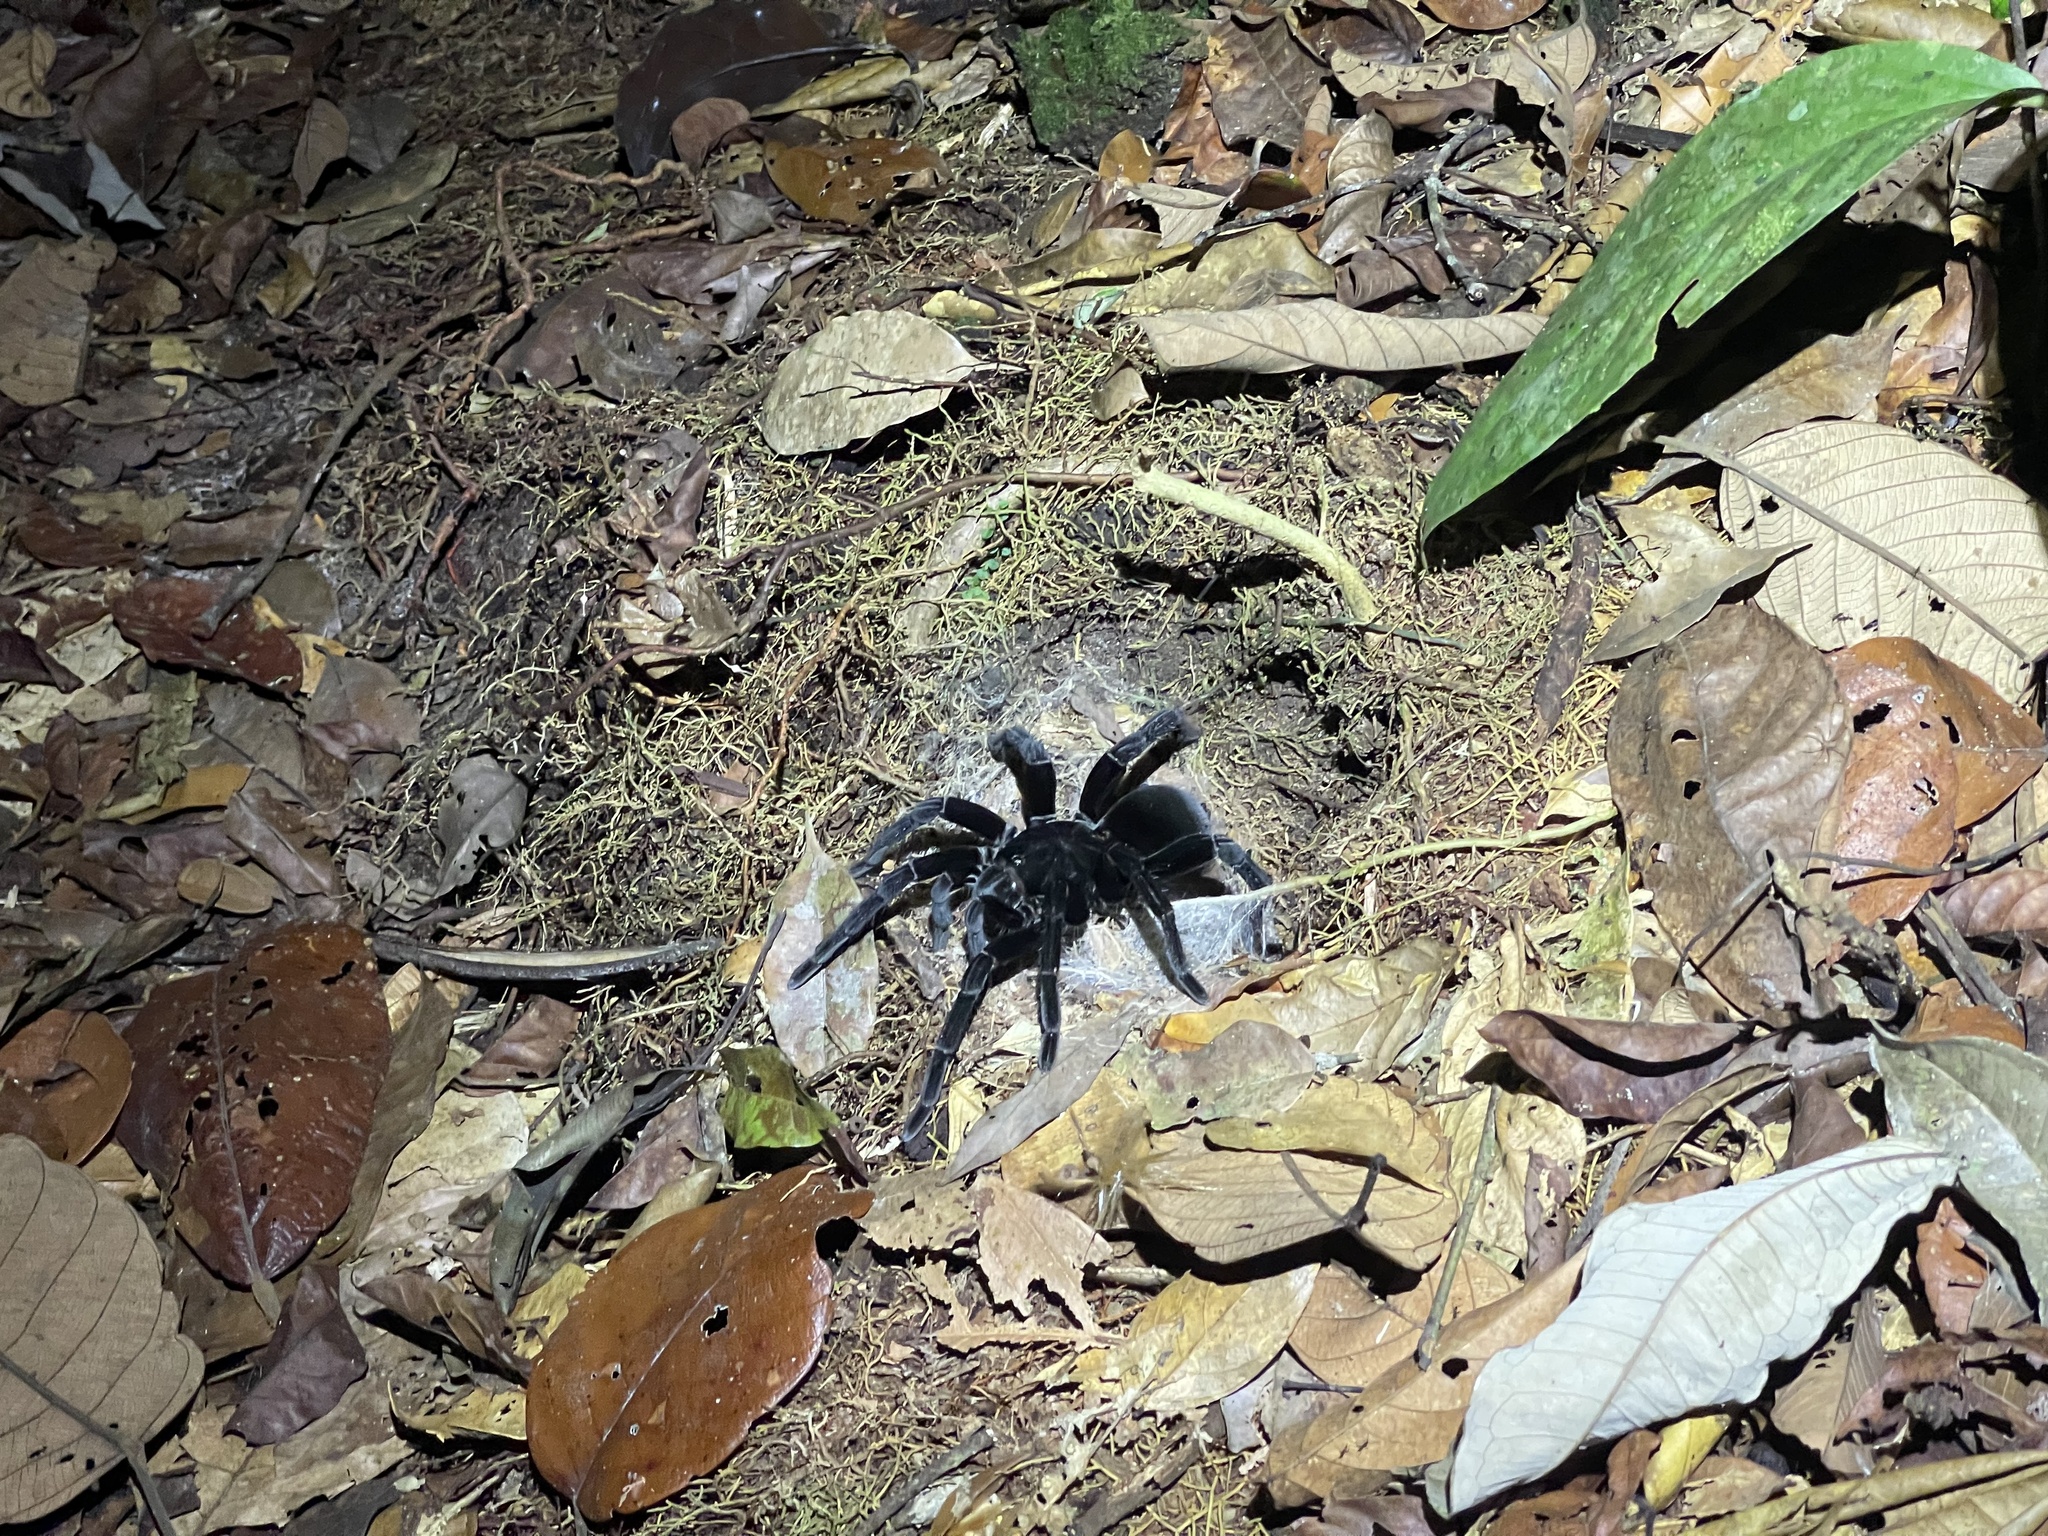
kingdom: Animalia
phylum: Arthropoda
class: Arachnida
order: Araneae
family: Theraphosidae
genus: Pamphobeteus
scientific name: Pamphobeteus crassifemur
